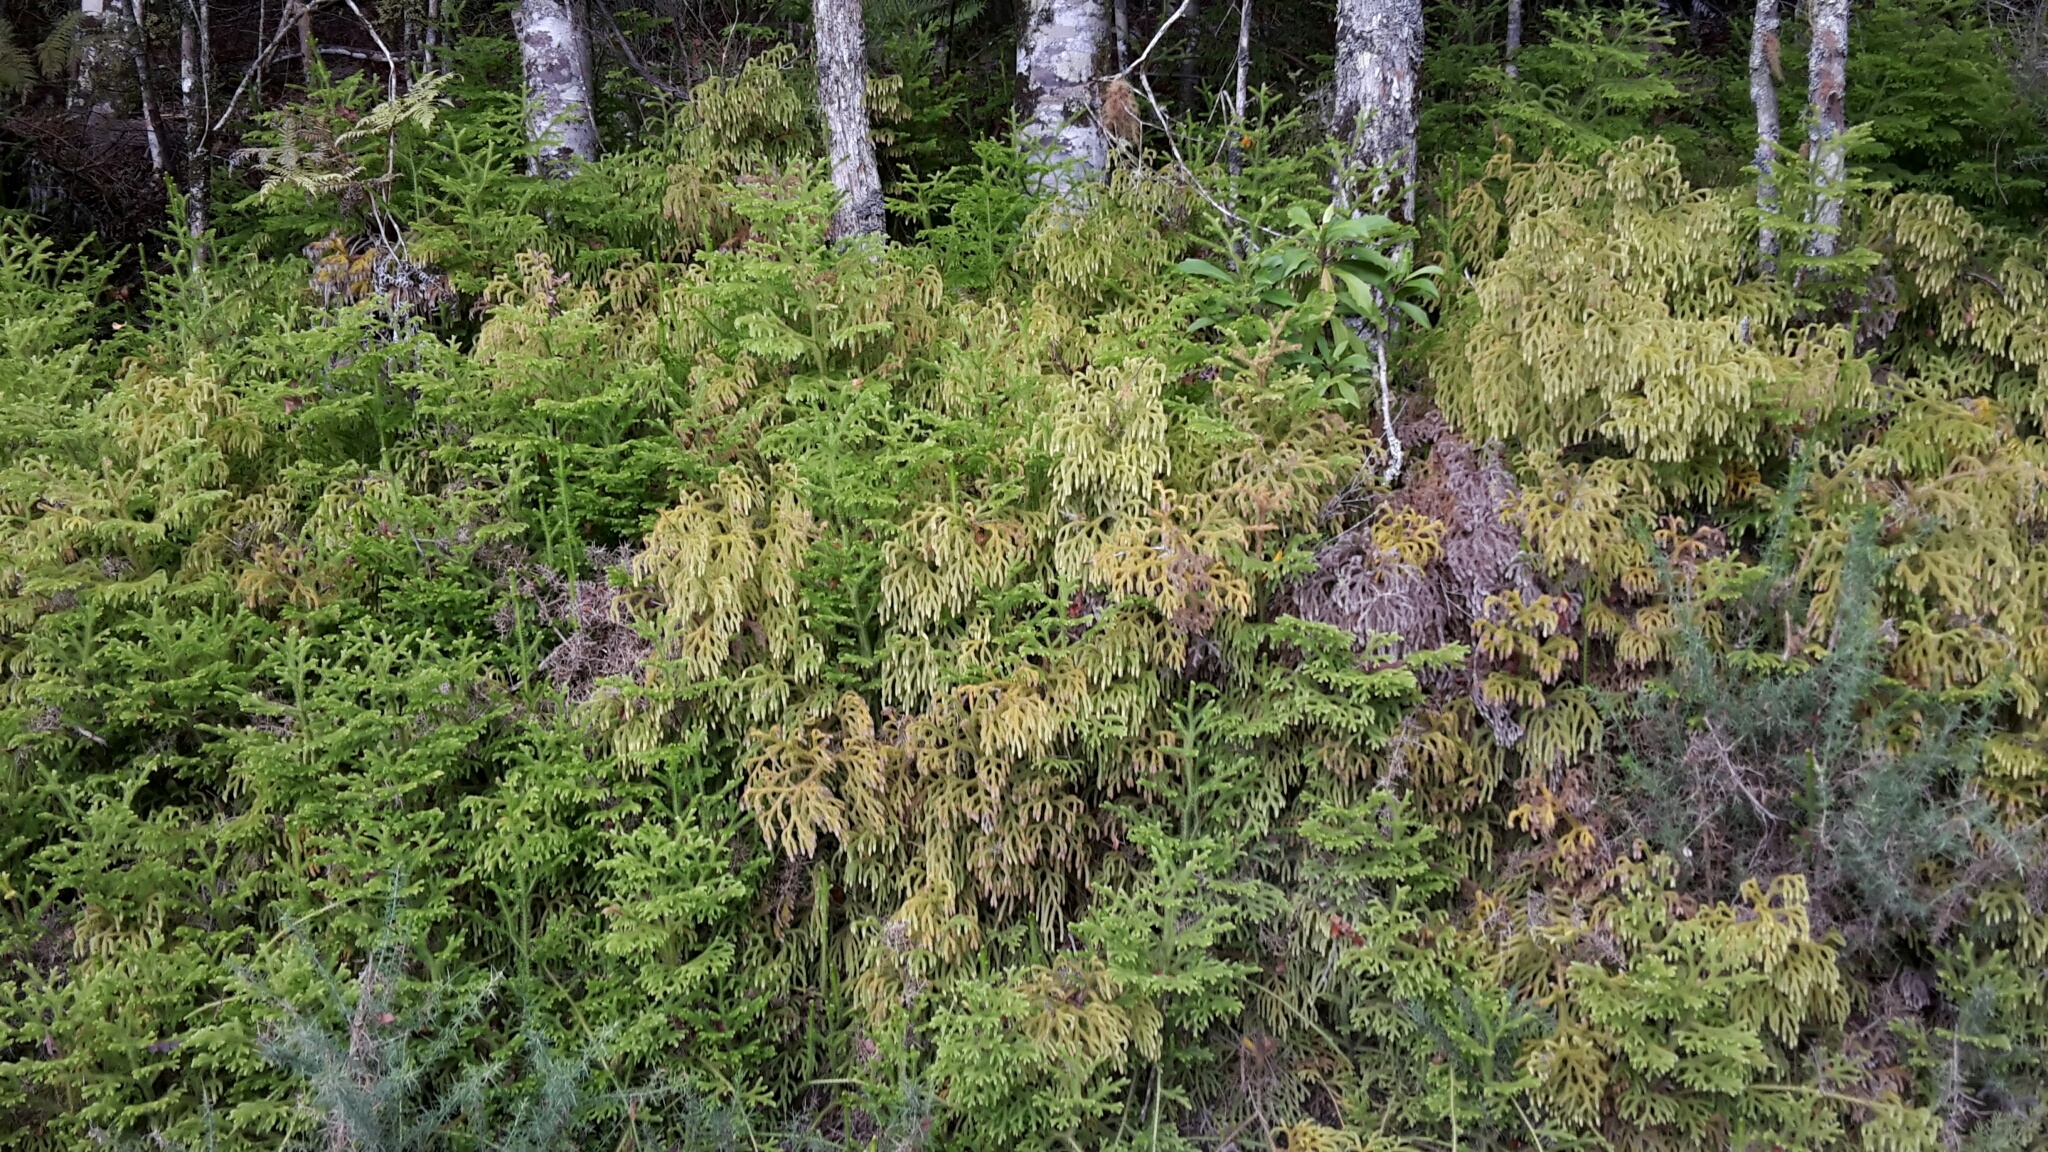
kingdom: Plantae
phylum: Tracheophyta
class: Lycopodiopsida
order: Lycopodiales
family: Lycopodiaceae
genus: Palhinhaea
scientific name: Palhinhaea cernua
